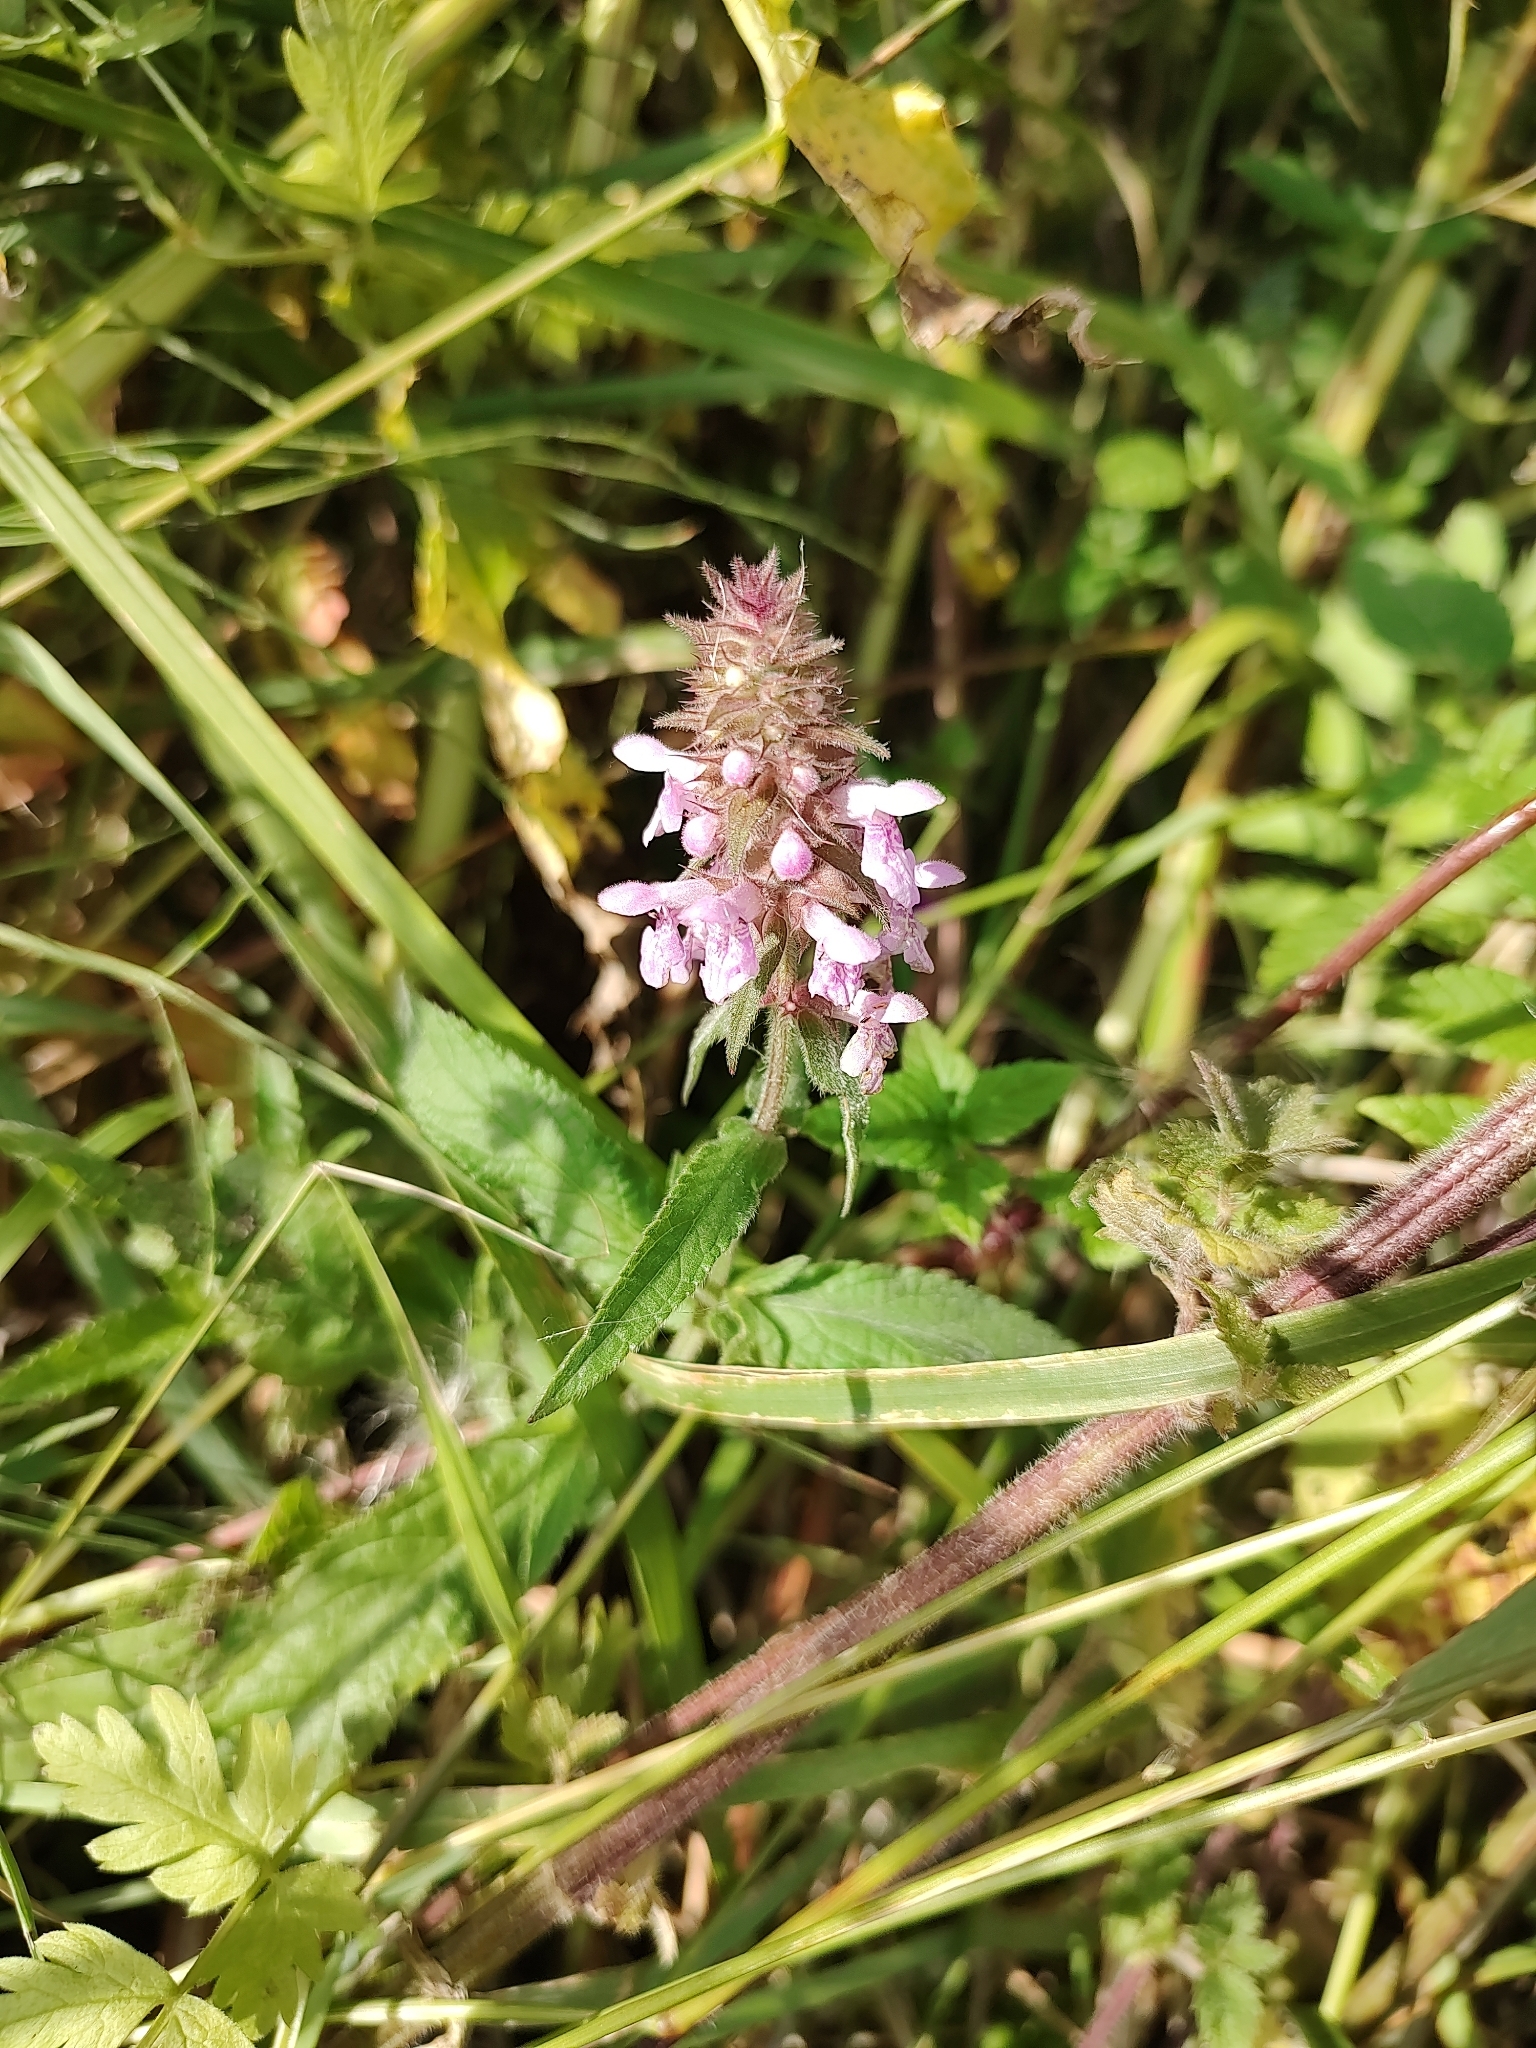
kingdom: Plantae
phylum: Tracheophyta
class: Magnoliopsida
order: Lamiales
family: Lamiaceae
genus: Stachys
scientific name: Stachys palustris
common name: Marsh woundwort
